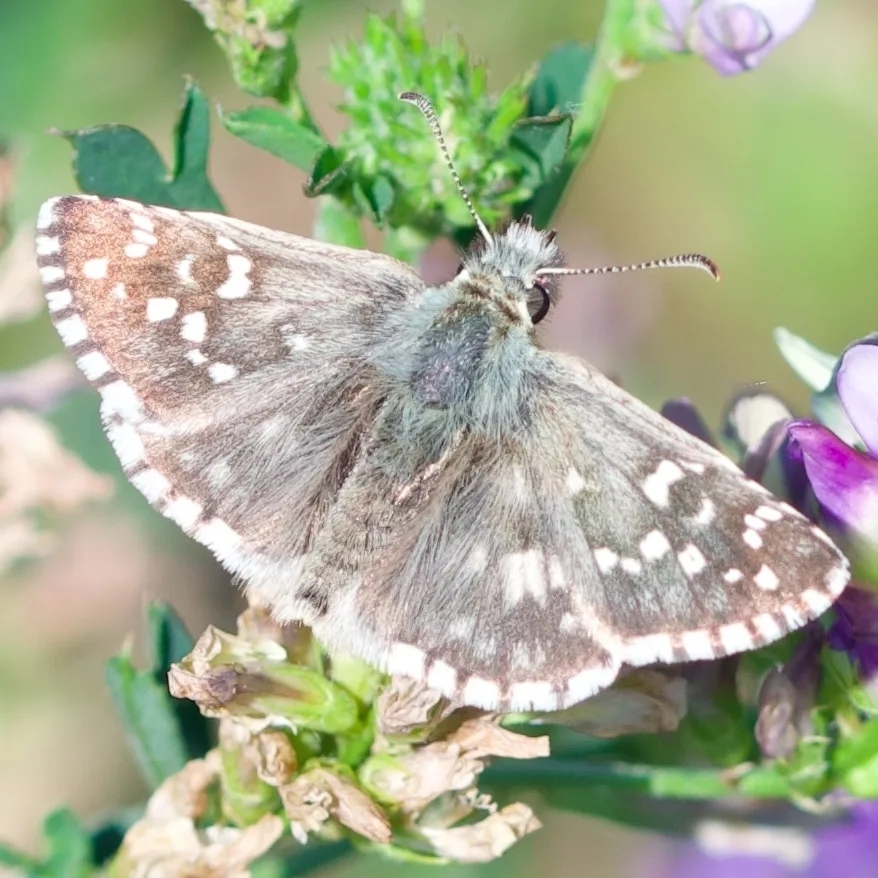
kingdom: Animalia
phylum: Arthropoda
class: Insecta
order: Lepidoptera
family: Hesperiidae
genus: Pyrgus
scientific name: Pyrgus armoricanus
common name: Oberthür's grizzled skipper
